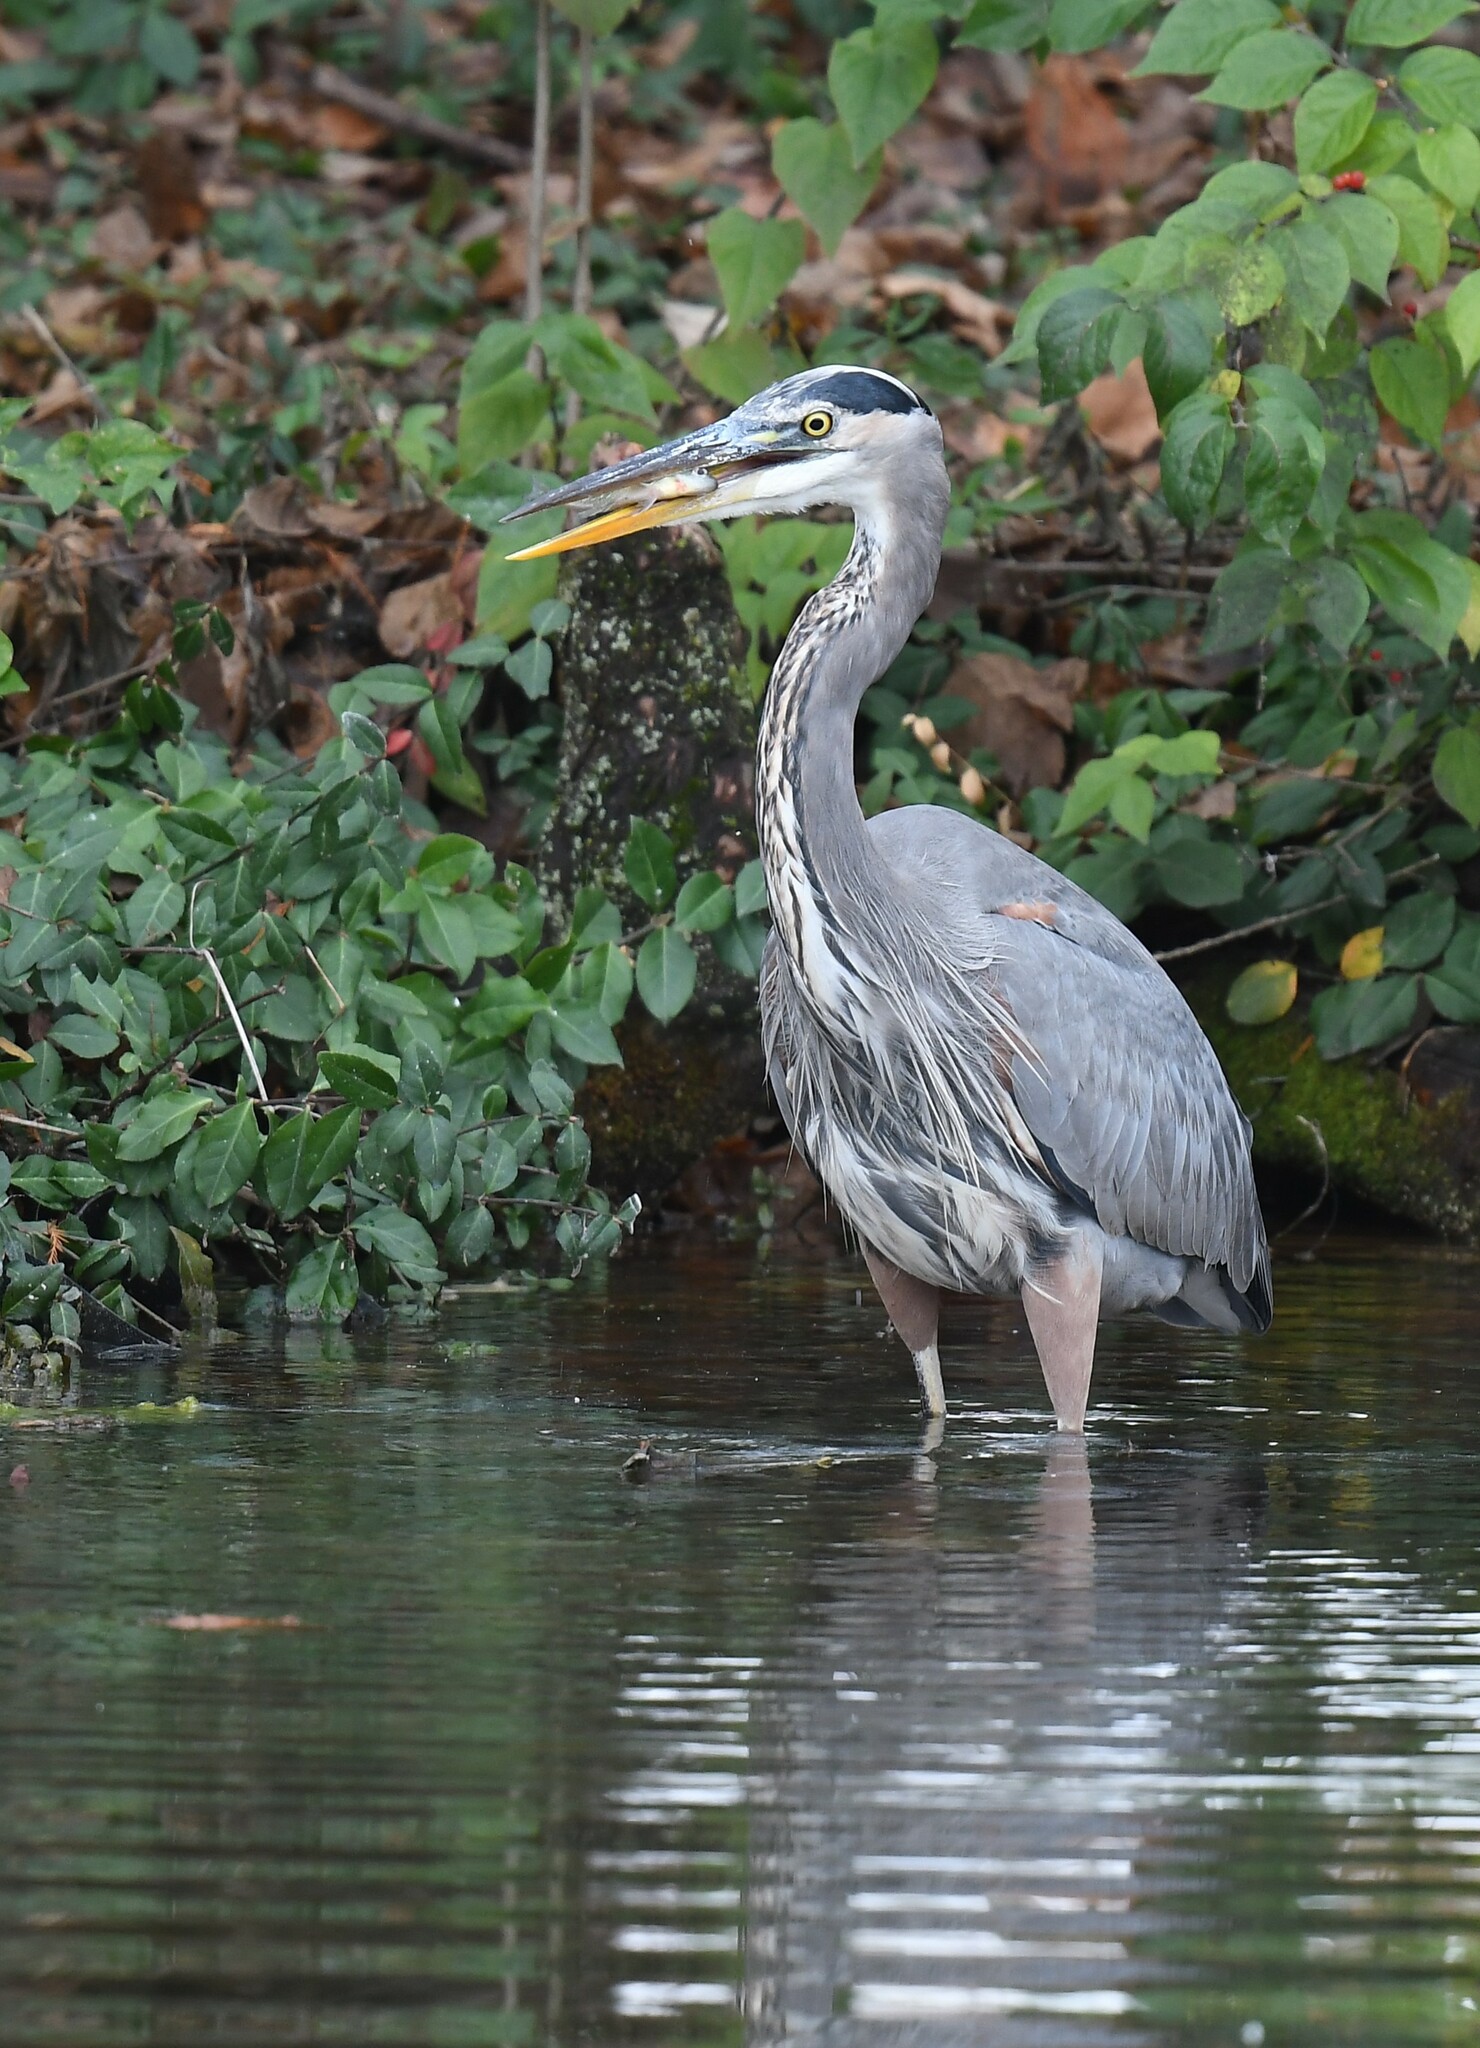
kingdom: Animalia
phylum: Chordata
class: Aves
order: Pelecaniformes
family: Ardeidae
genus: Ardea
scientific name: Ardea herodias
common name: Great blue heron
